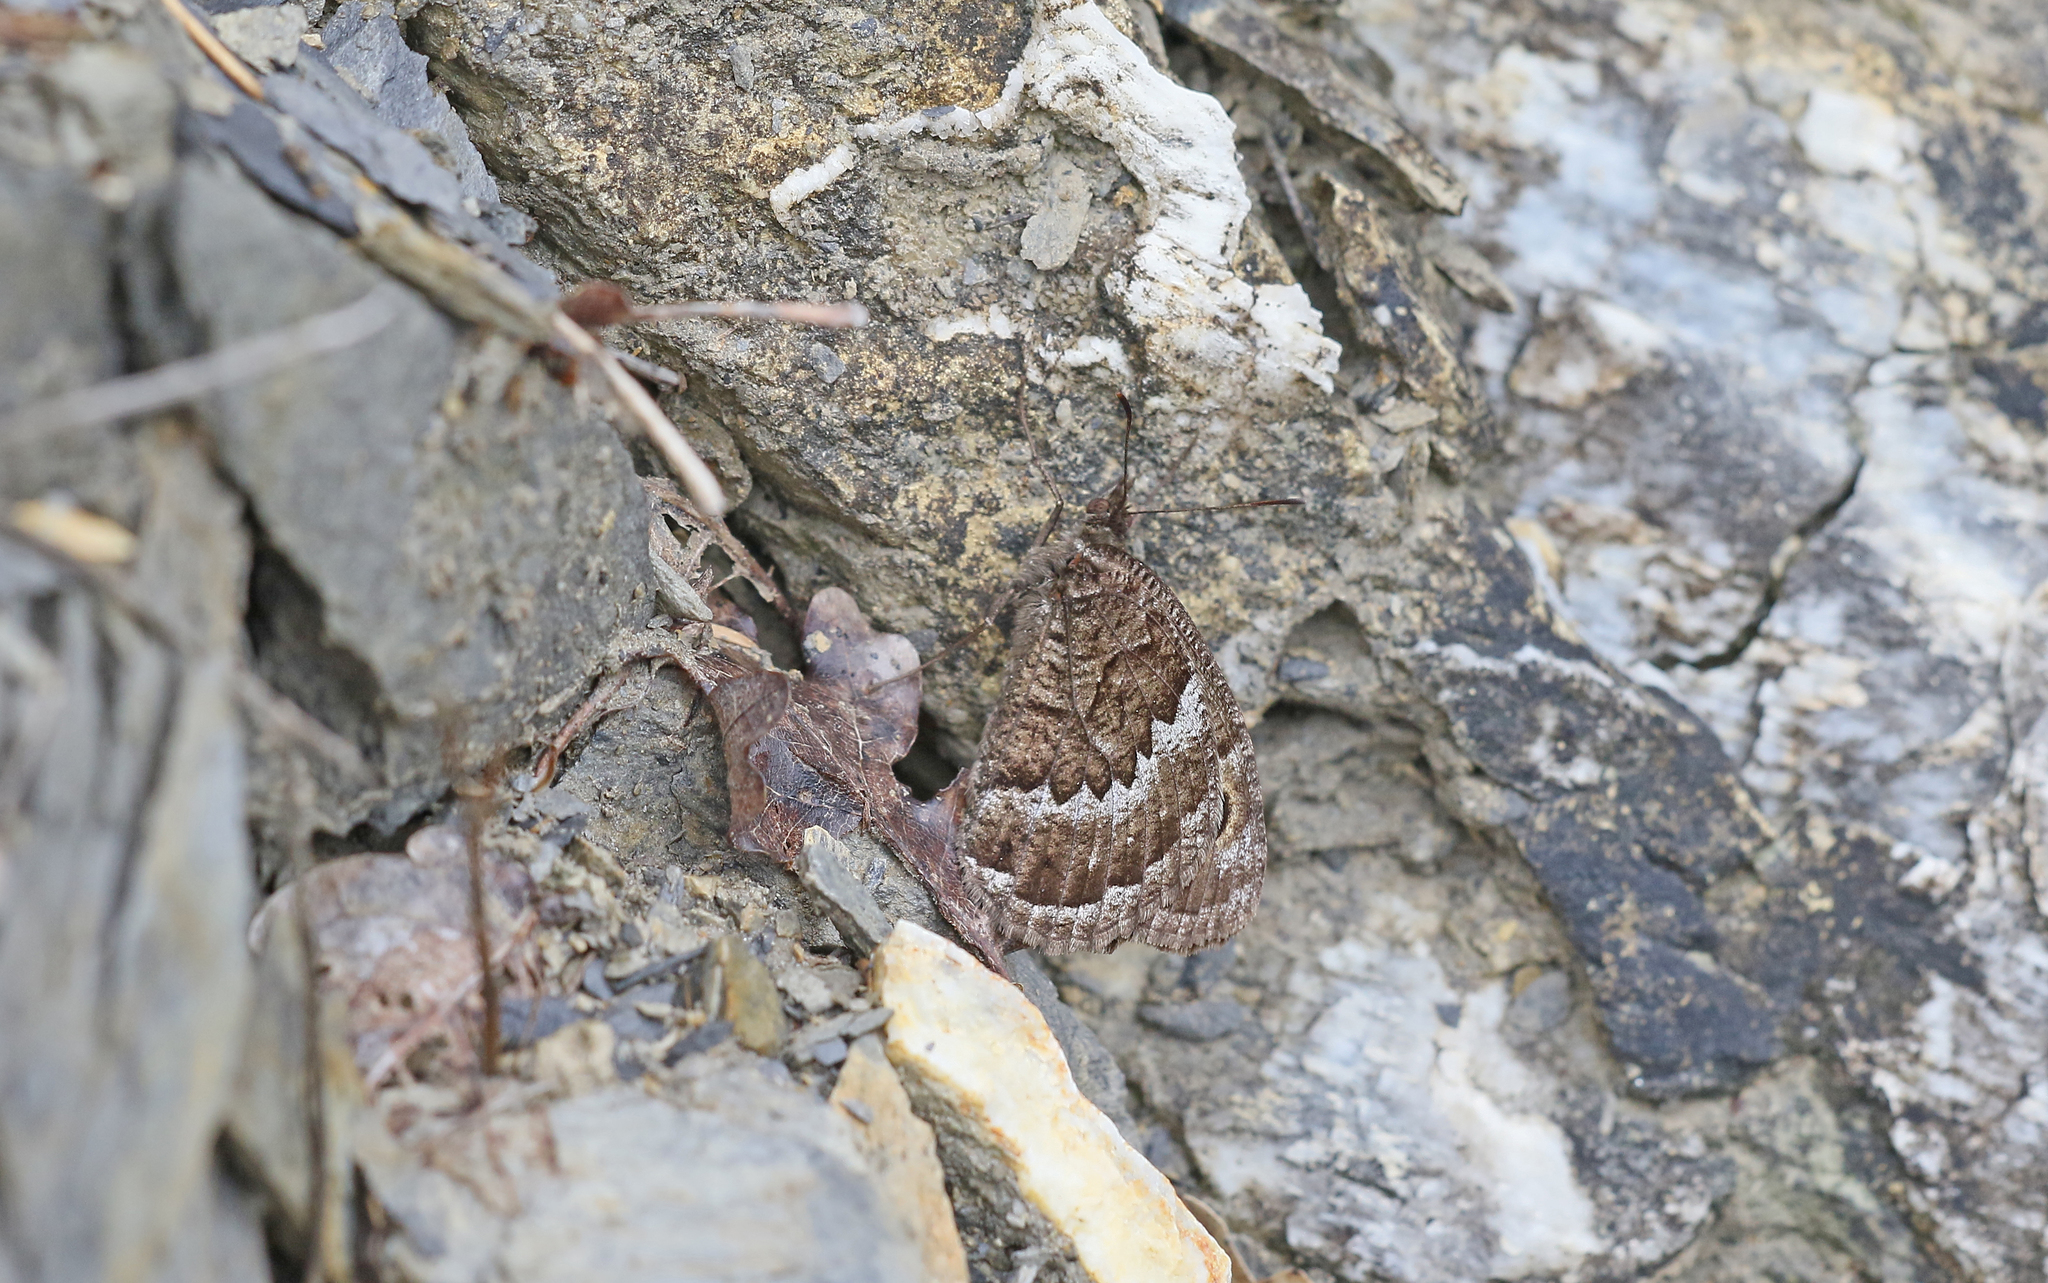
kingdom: Animalia
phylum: Arthropoda
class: Insecta
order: Lepidoptera
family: Nymphalidae
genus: Satyrus
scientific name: Satyrus actaea
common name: Black satyr
